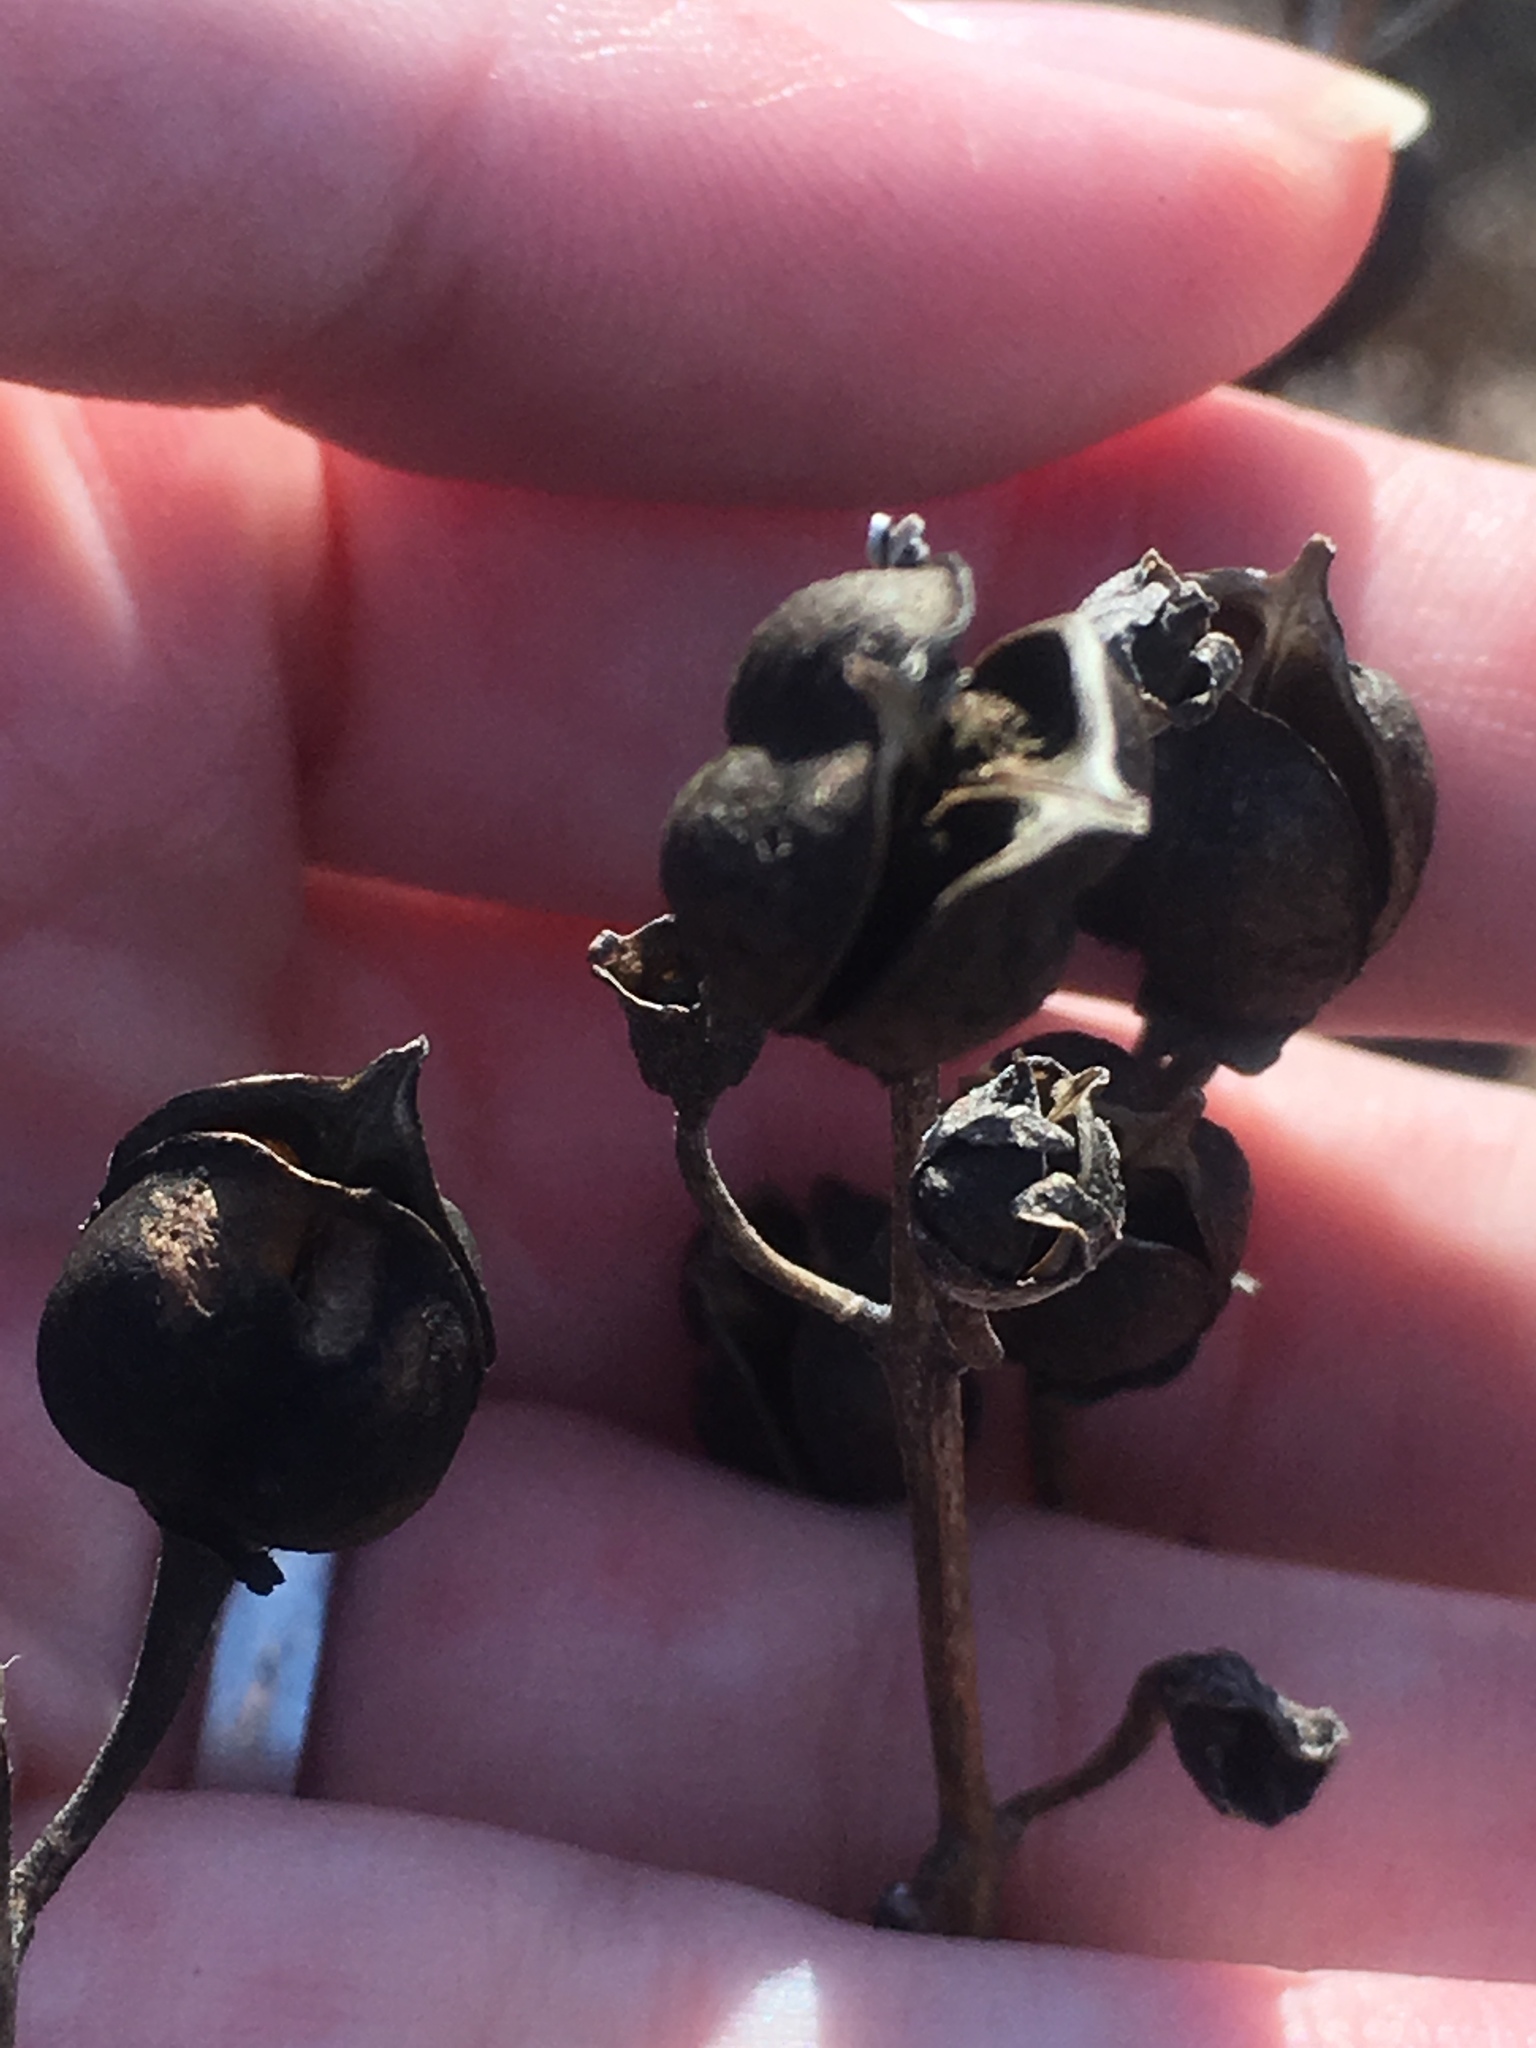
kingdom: Plantae
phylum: Tracheophyta
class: Magnoliopsida
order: Lamiales
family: Orobanchaceae
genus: Aureolaria
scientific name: Aureolaria grandiflora
